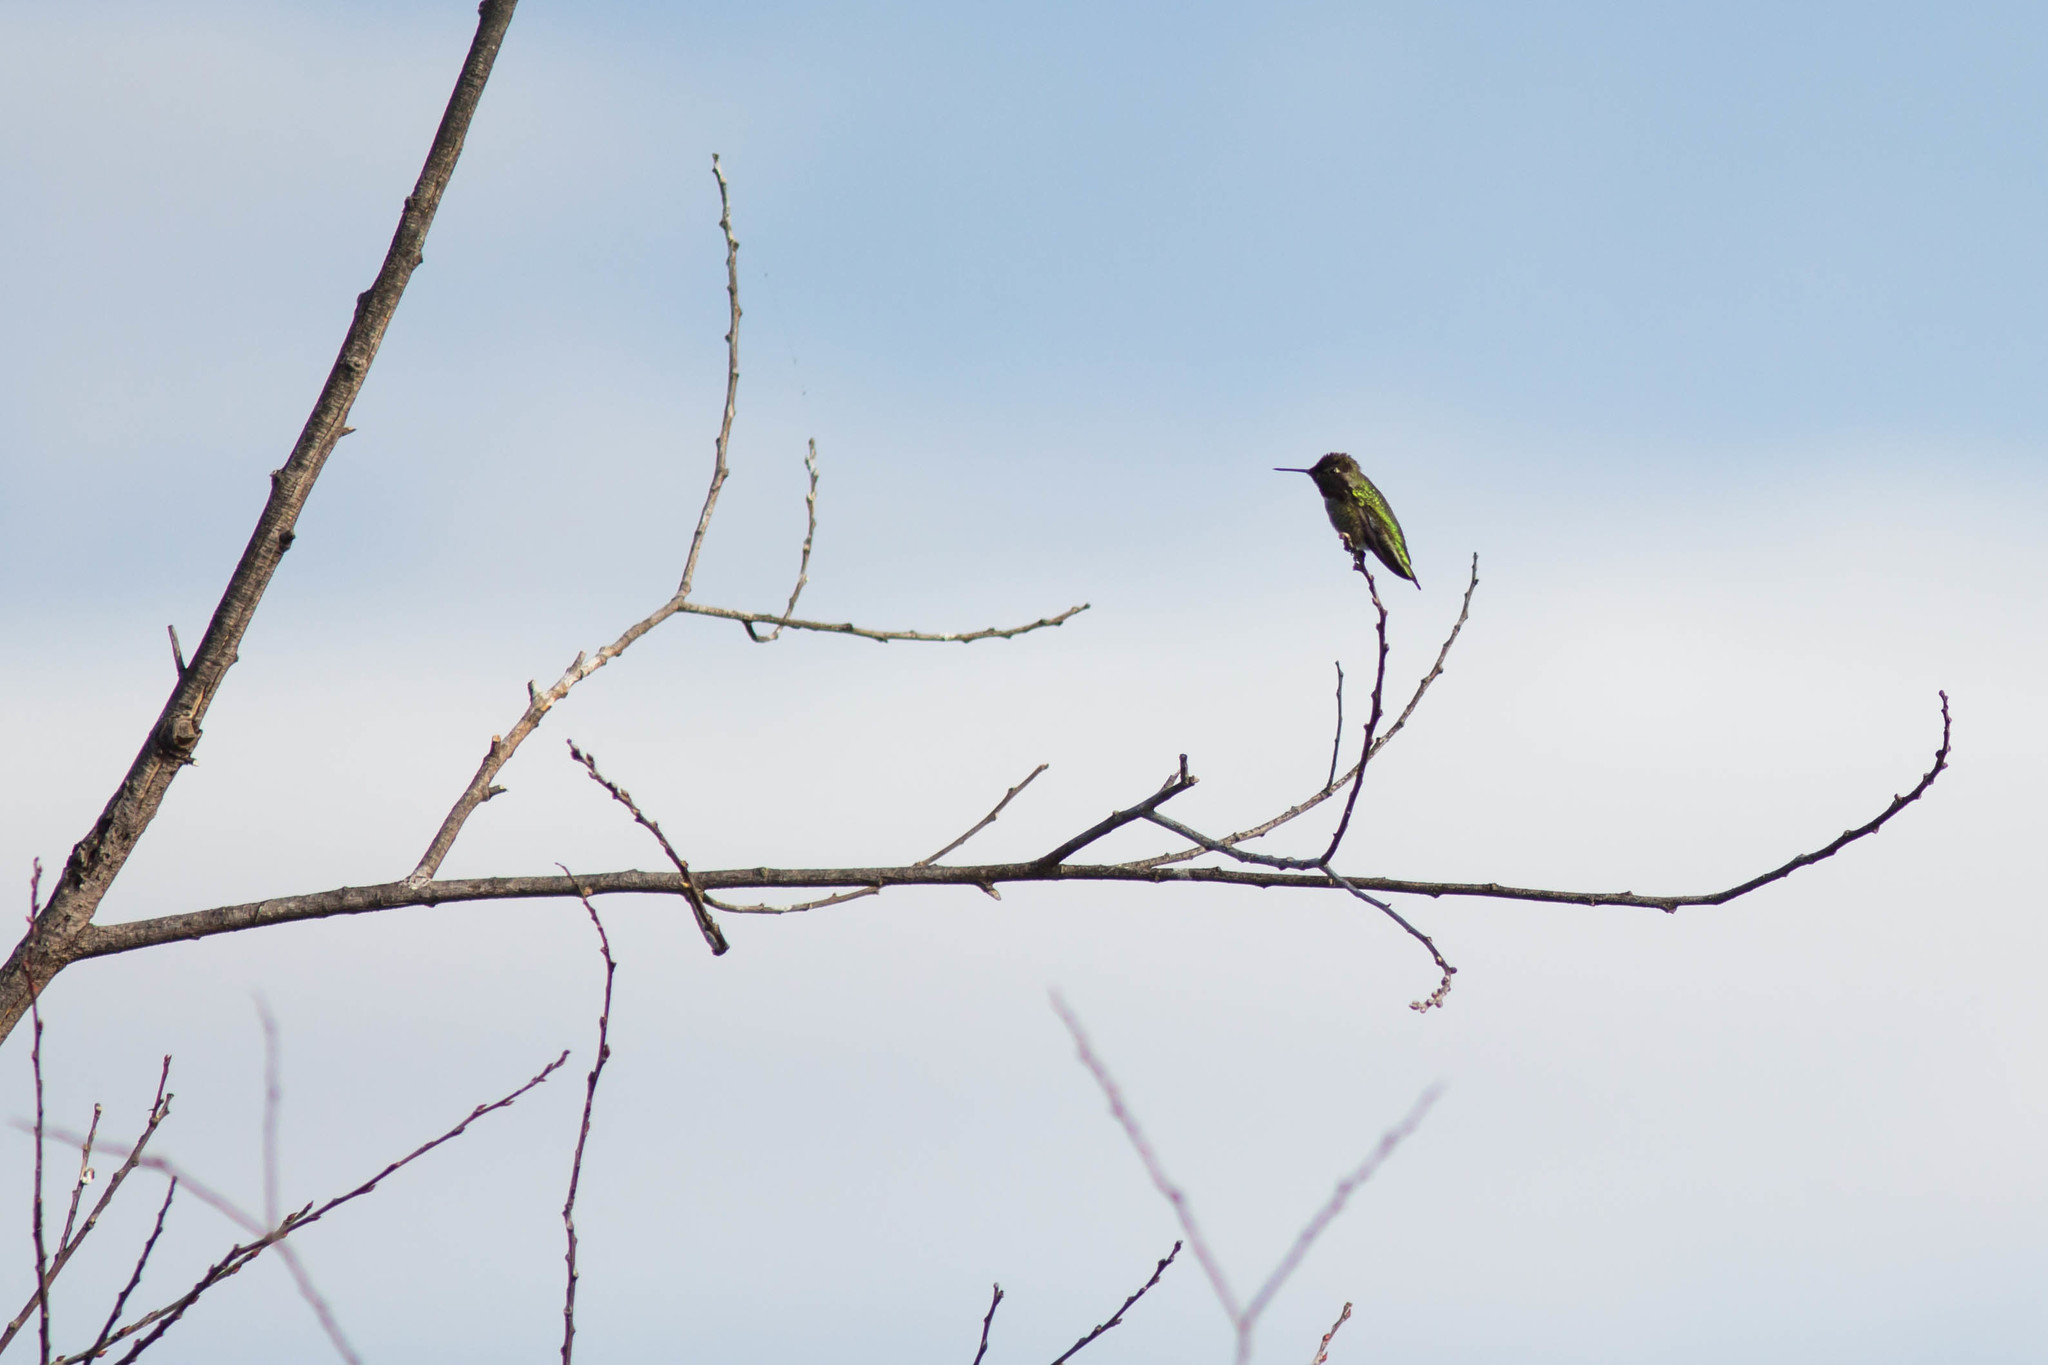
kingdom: Animalia
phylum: Chordata
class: Aves
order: Apodiformes
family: Trochilidae
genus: Calypte
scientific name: Calypte anna
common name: Anna's hummingbird
